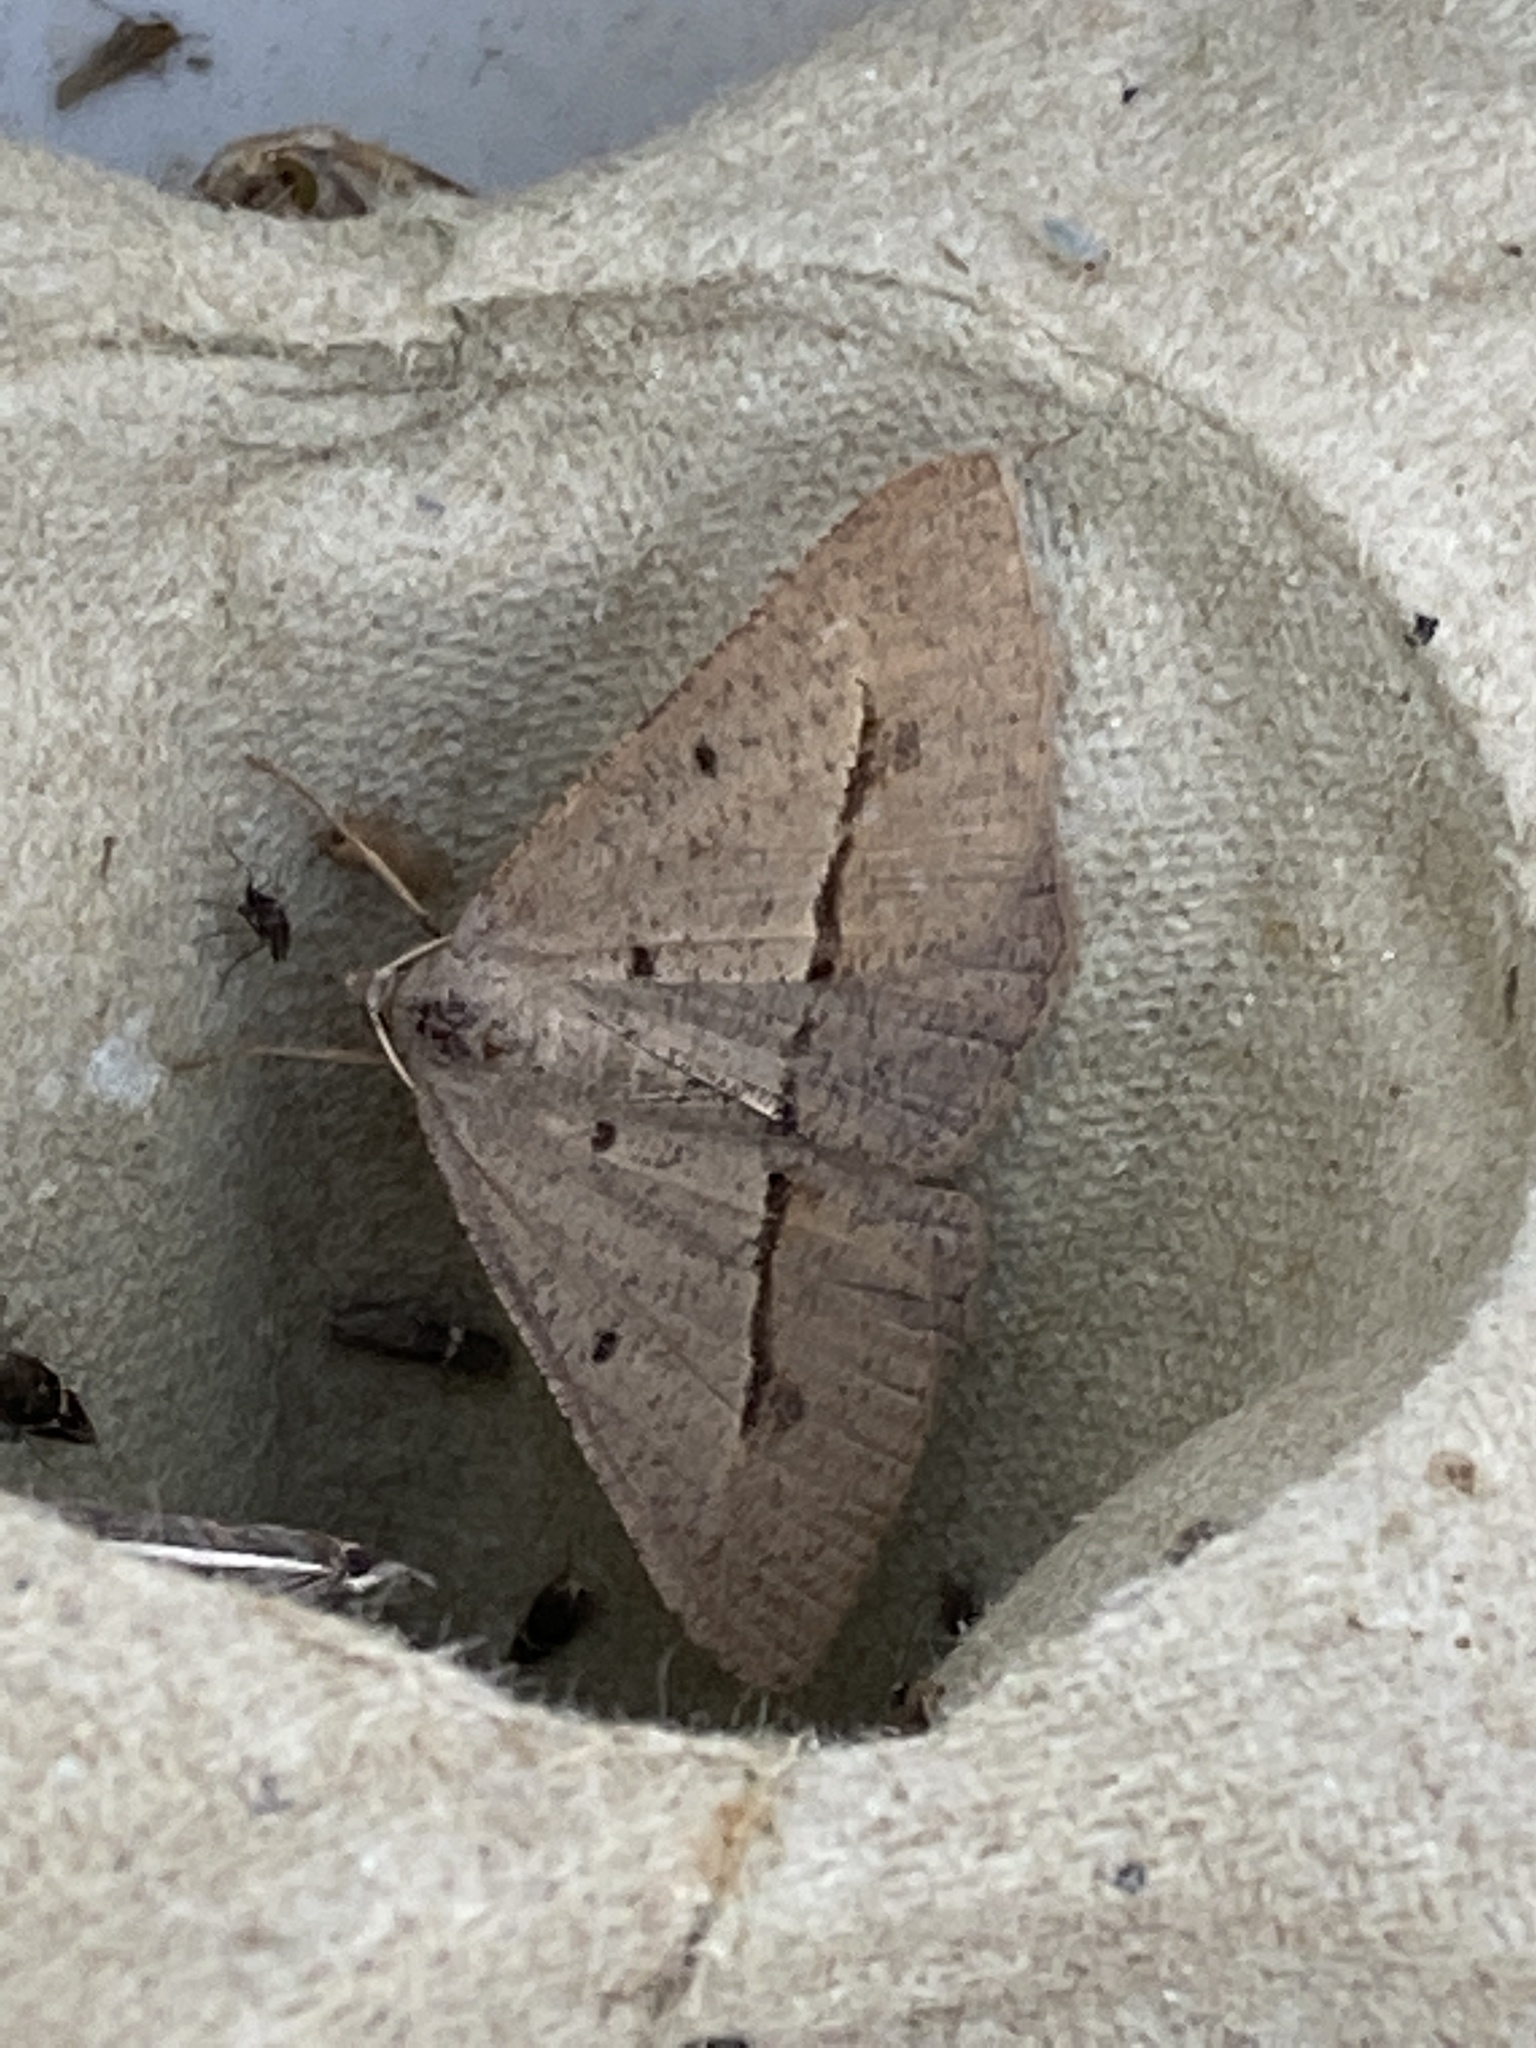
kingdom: Animalia
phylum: Arthropoda
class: Insecta
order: Lepidoptera
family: Geometridae
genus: Isturgia
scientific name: Isturgia
